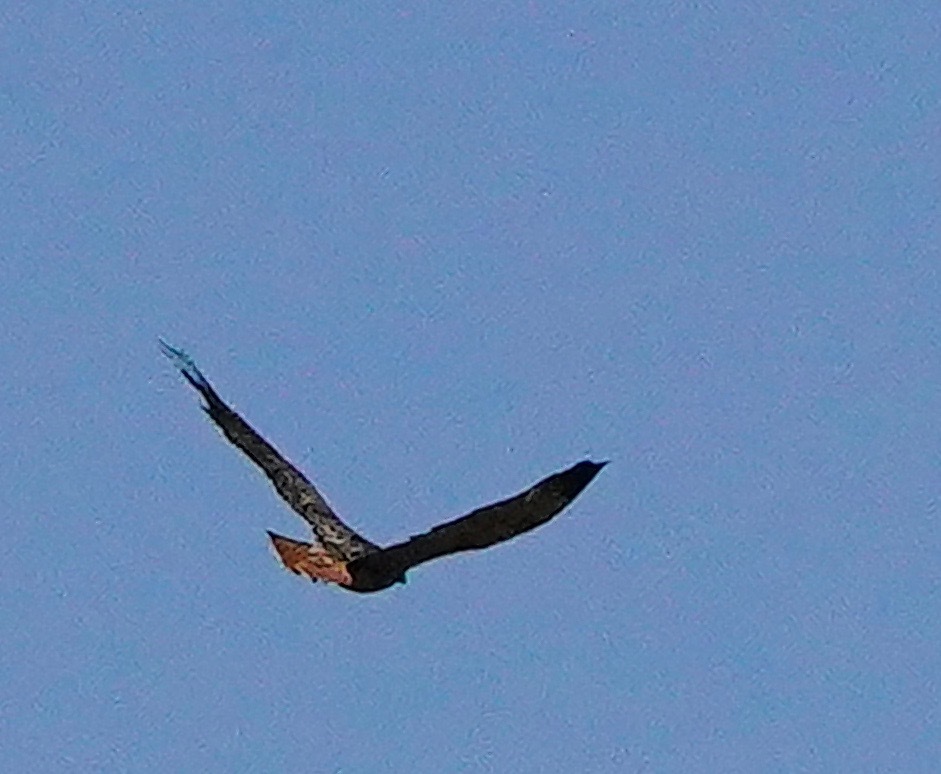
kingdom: Animalia
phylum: Chordata
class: Aves
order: Accipitriformes
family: Accipitridae
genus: Buteo
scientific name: Buteo jamaicensis
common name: Red-tailed hawk
